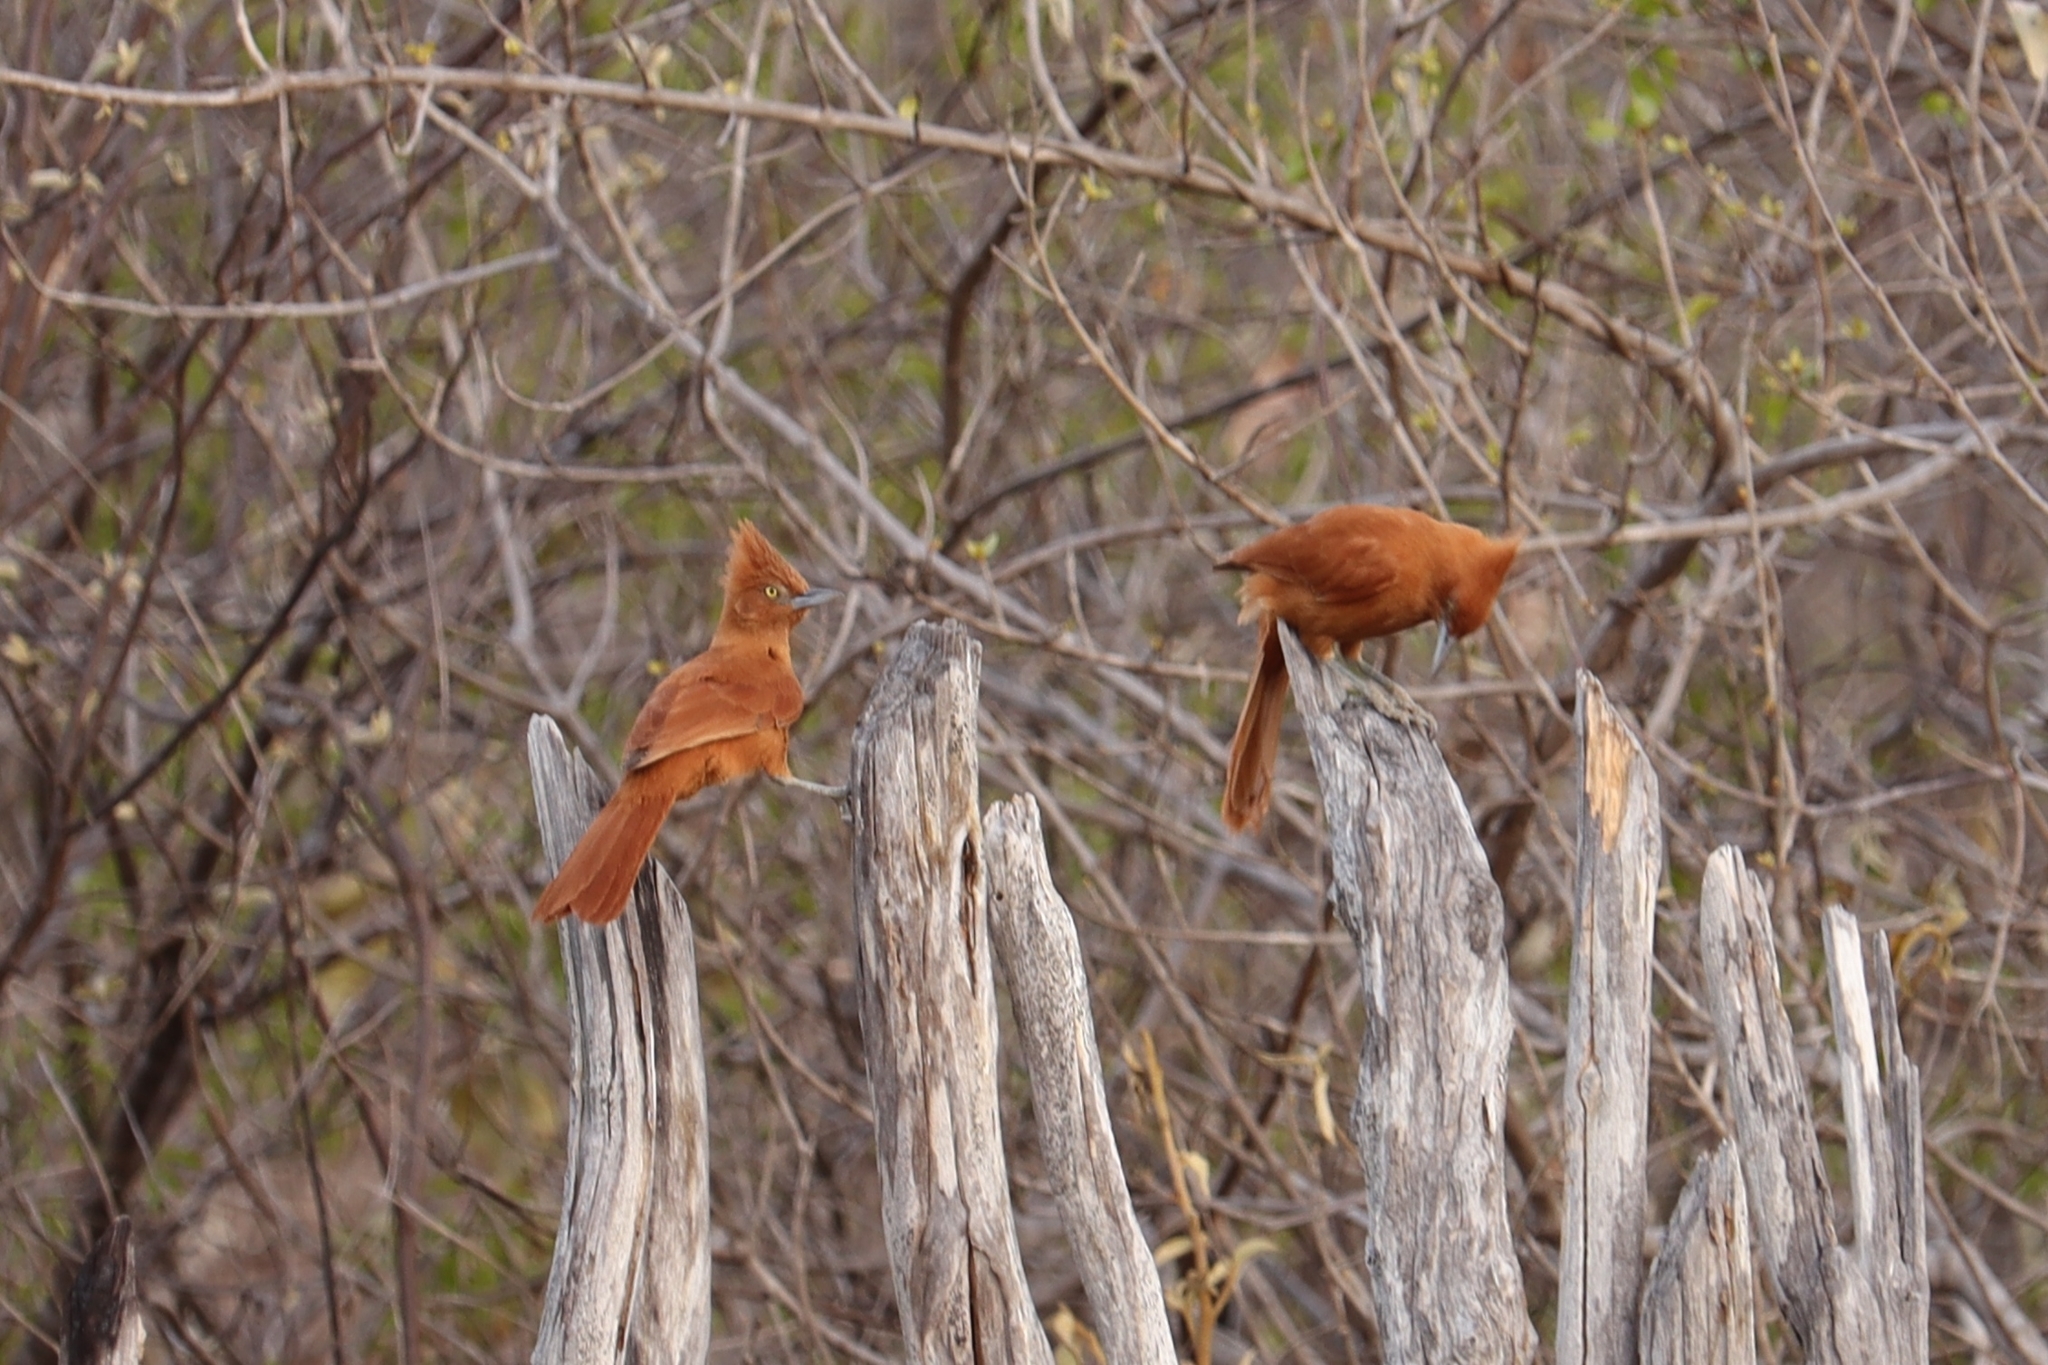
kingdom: Animalia
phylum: Chordata
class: Aves
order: Passeriformes
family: Furnariidae
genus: Pseudoseisura
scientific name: Pseudoseisura cristata
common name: Caatinga cacholote
